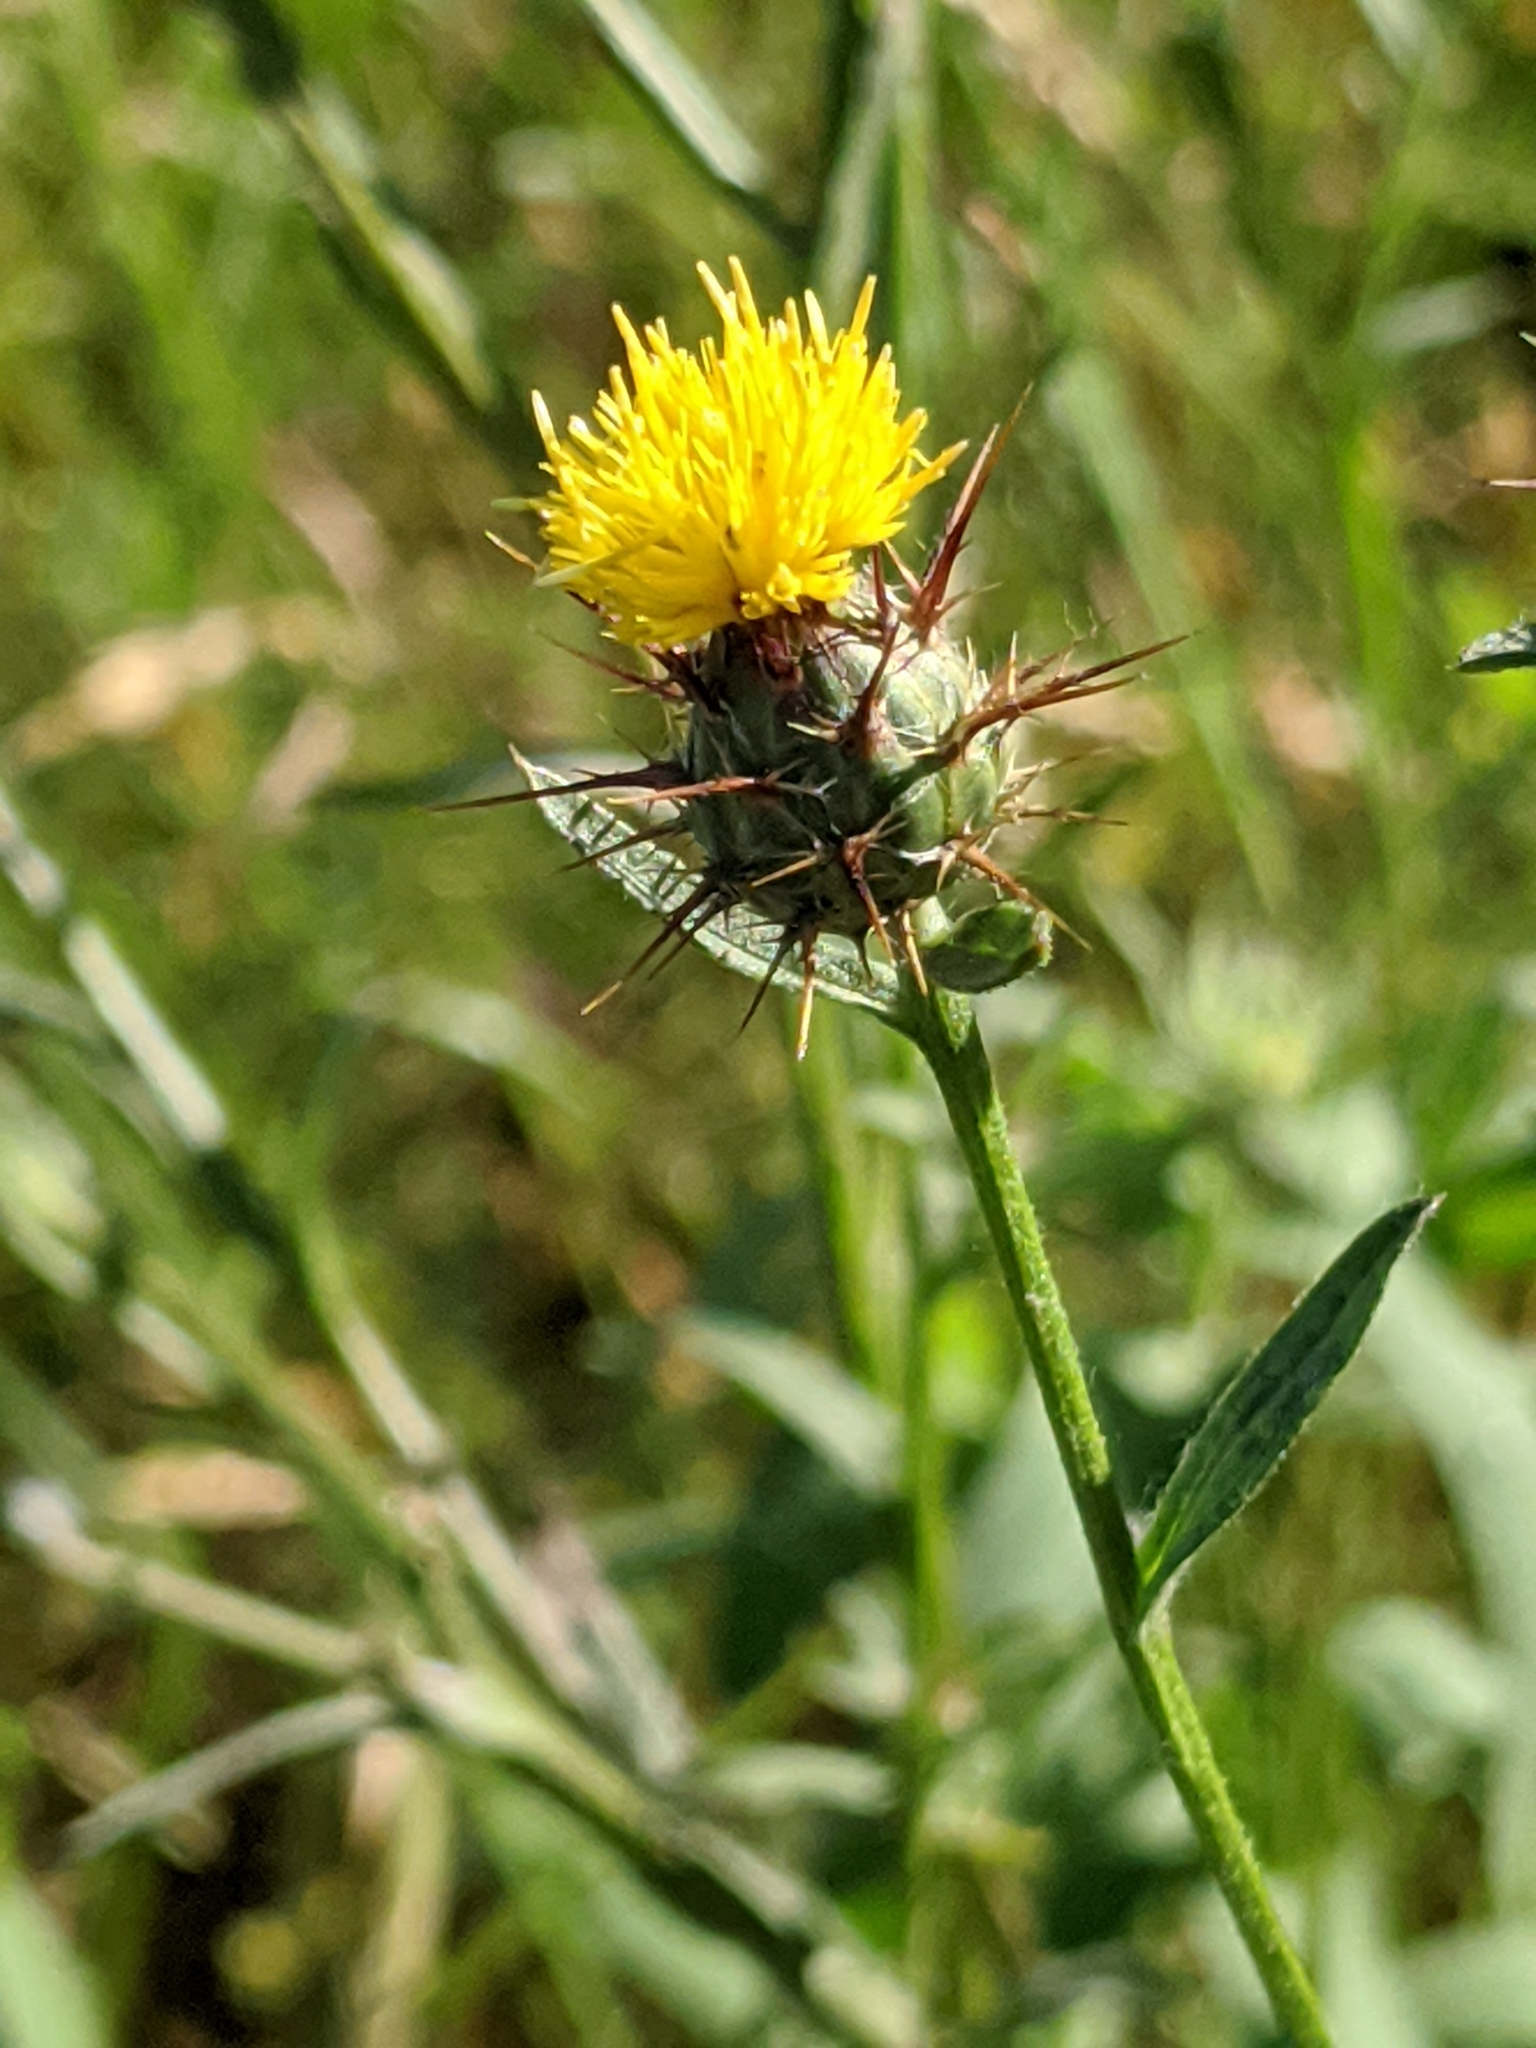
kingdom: Plantae
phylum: Tracheophyta
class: Magnoliopsida
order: Asterales
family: Asteraceae
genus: Centaurea
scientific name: Centaurea melitensis
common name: Maltese star-thistle
